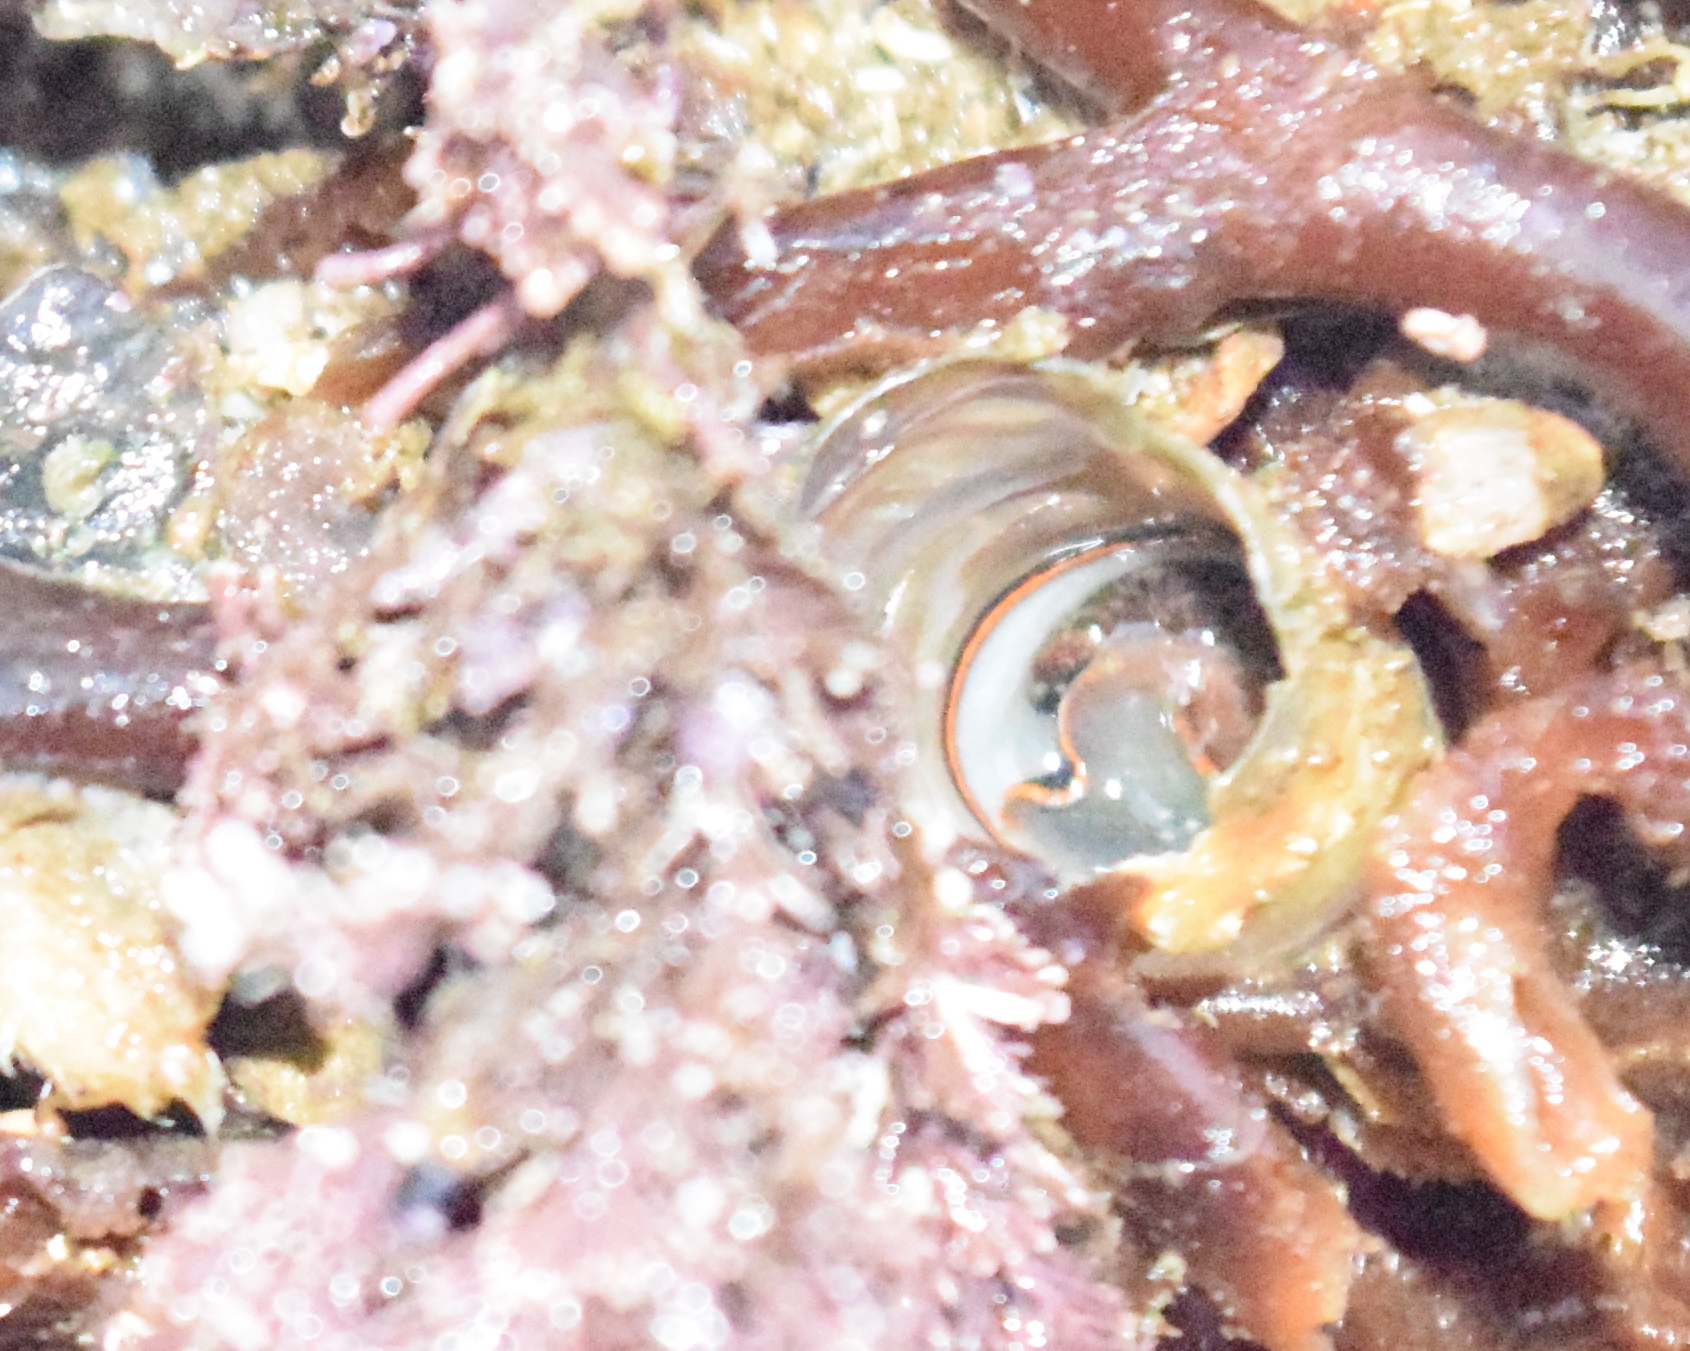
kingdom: Animalia
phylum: Mollusca
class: Gastropoda
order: Littorinimorpha
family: Vermetidae
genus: Thylacodes
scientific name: Thylacodes squamigerus
